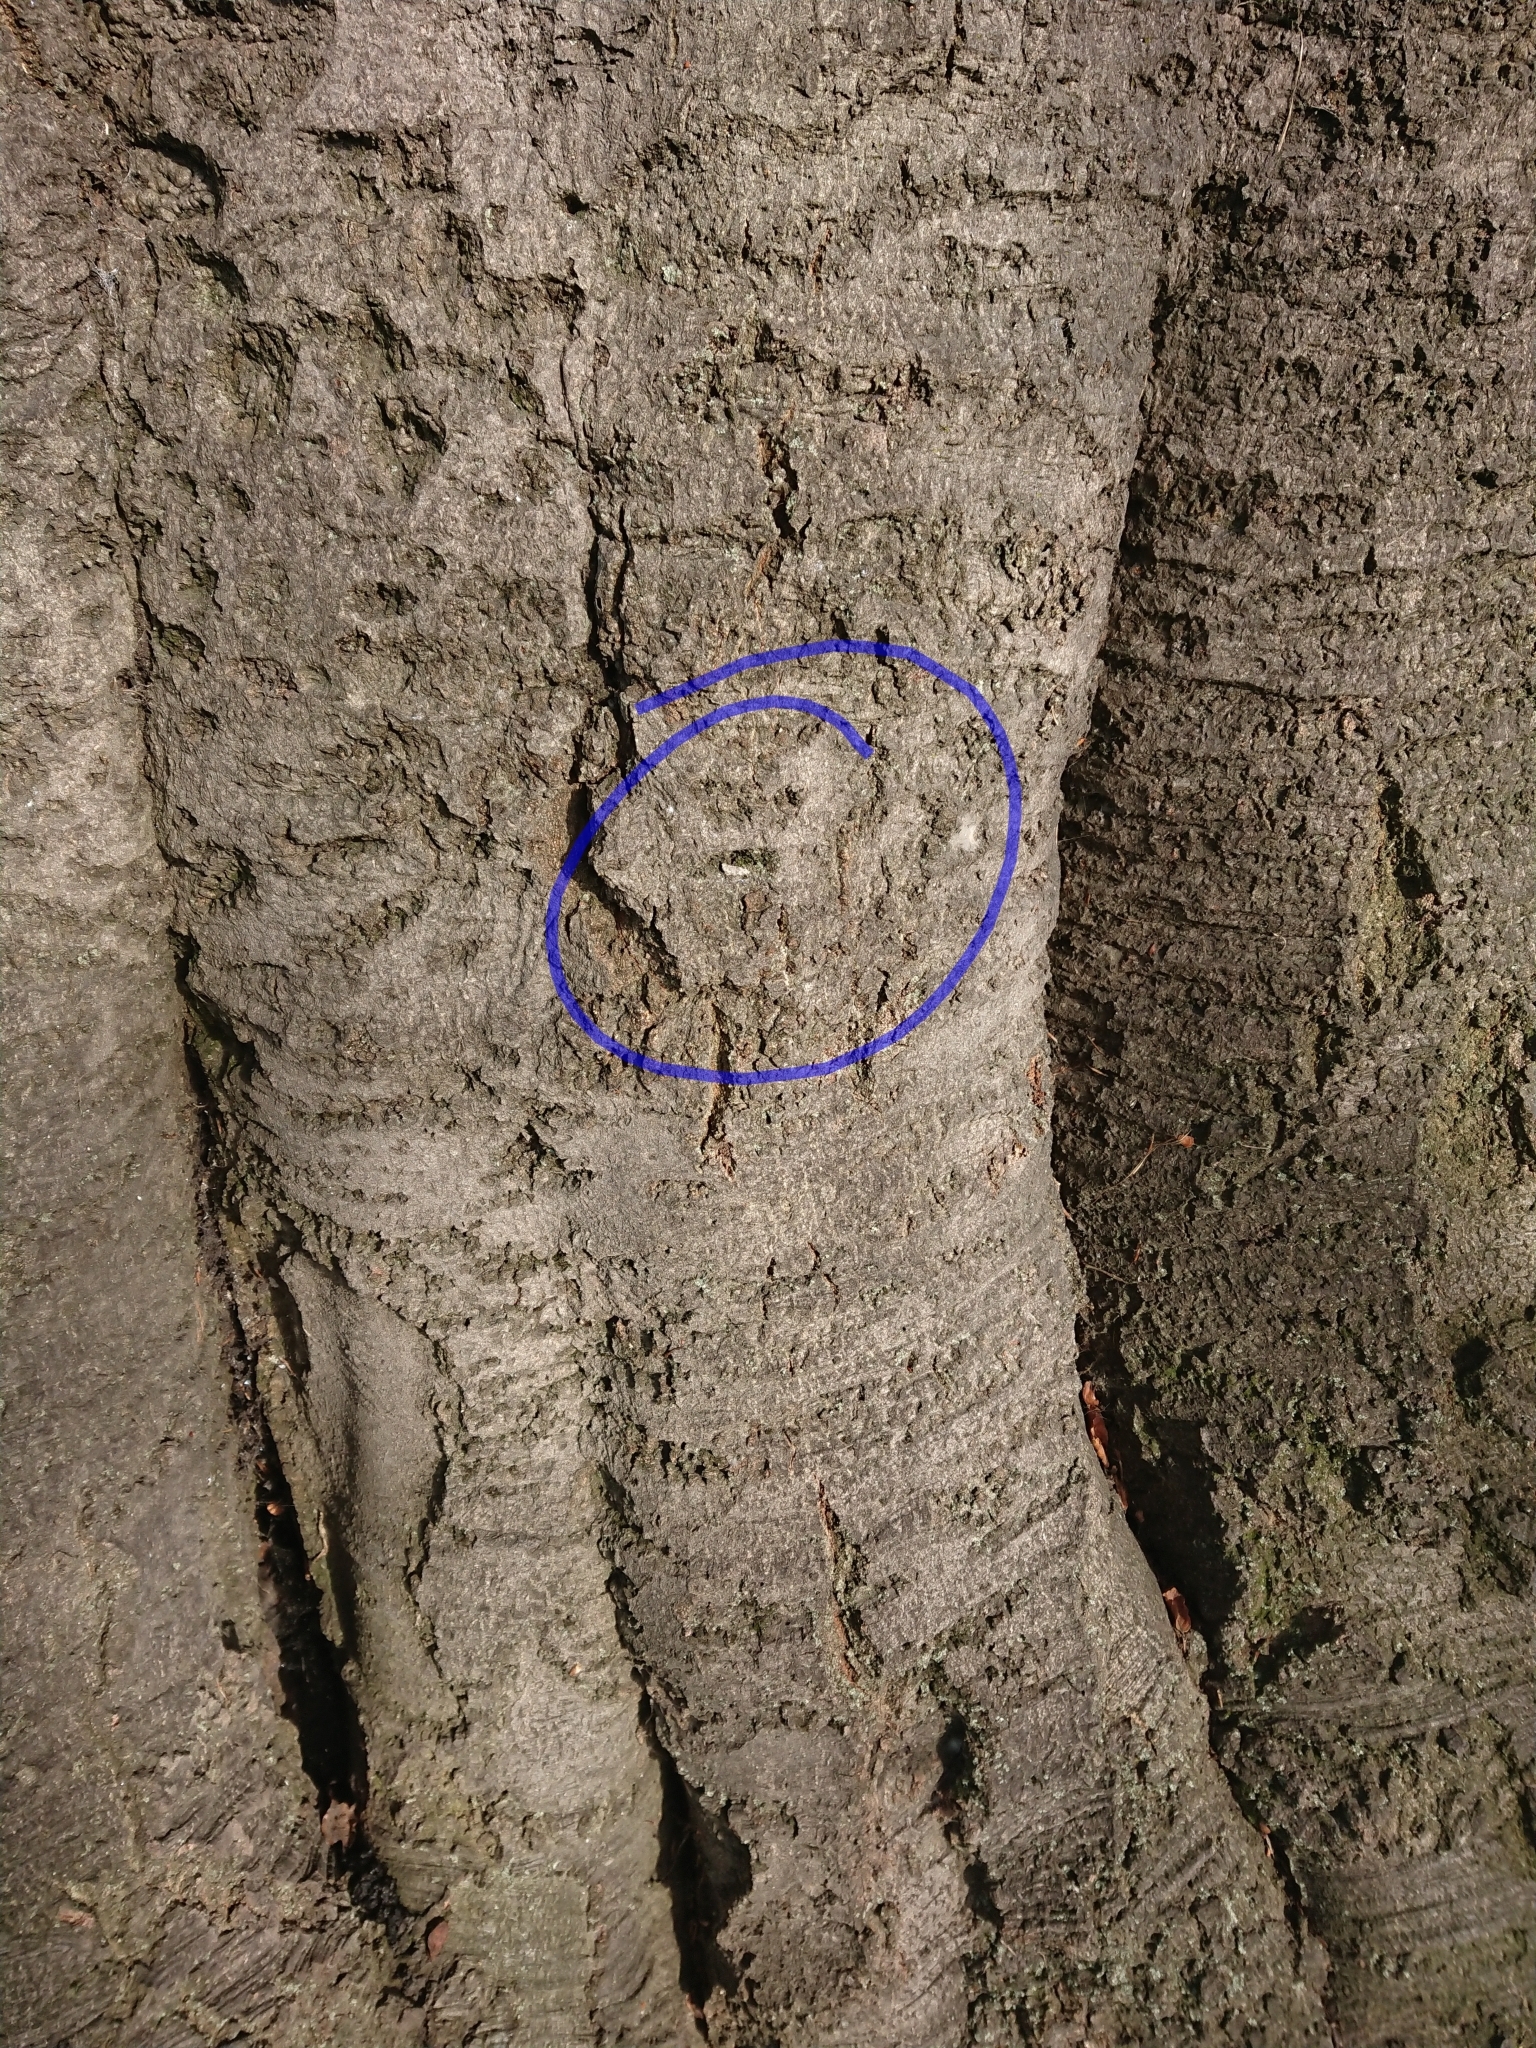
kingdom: Animalia
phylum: Arthropoda
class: Insecta
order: Lepidoptera
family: Oecophoridae
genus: Izatha
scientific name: Izatha convulsella
